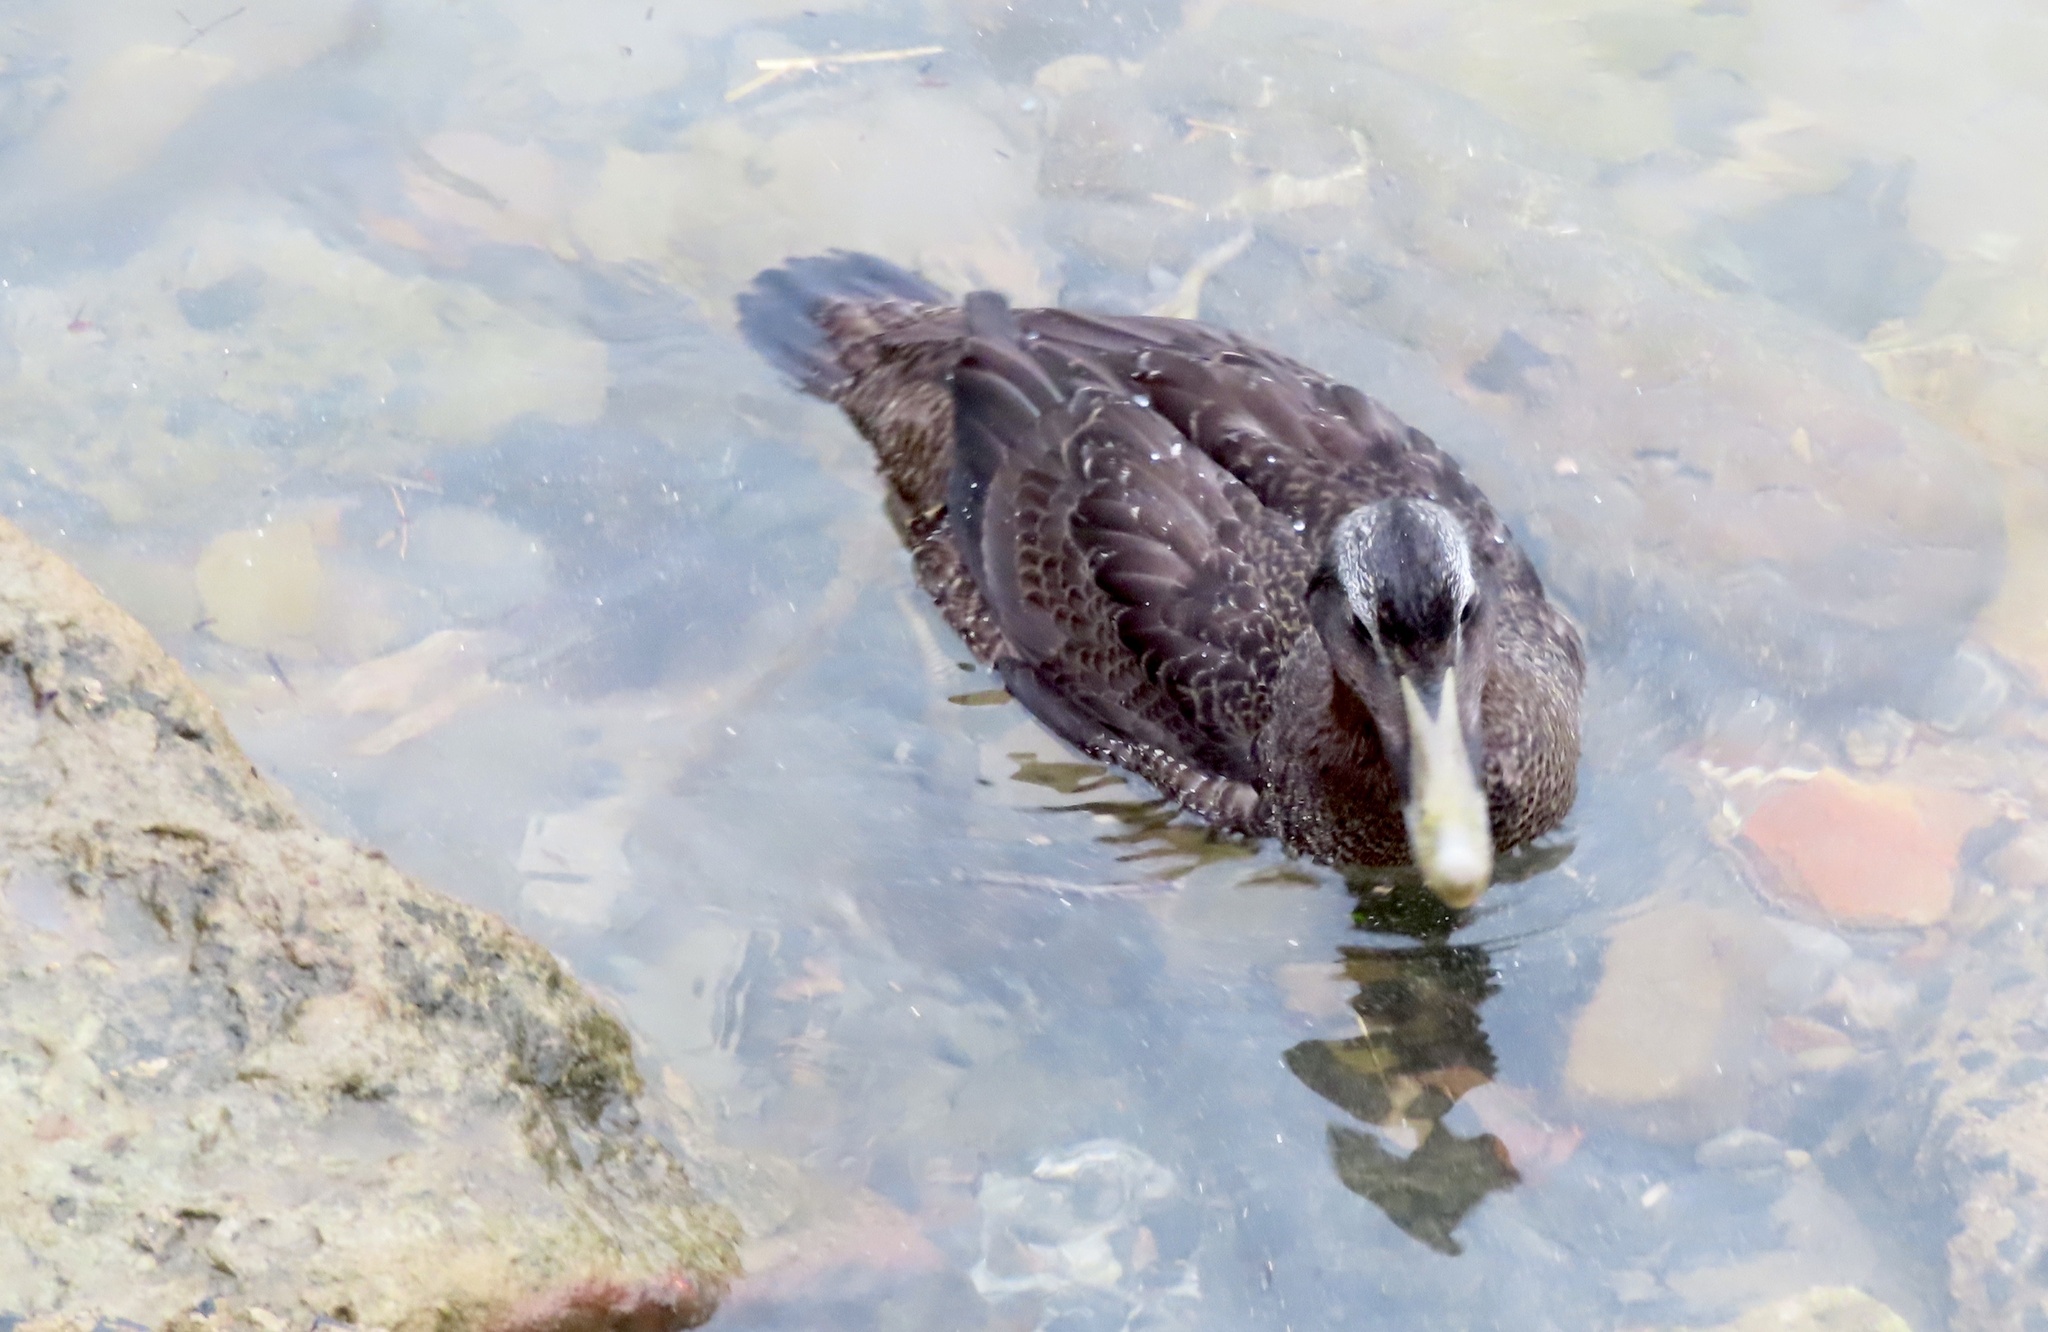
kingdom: Animalia
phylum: Chordata
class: Aves
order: Anseriformes
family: Anatidae
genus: Somateria
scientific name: Somateria mollissima
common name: Common eider
